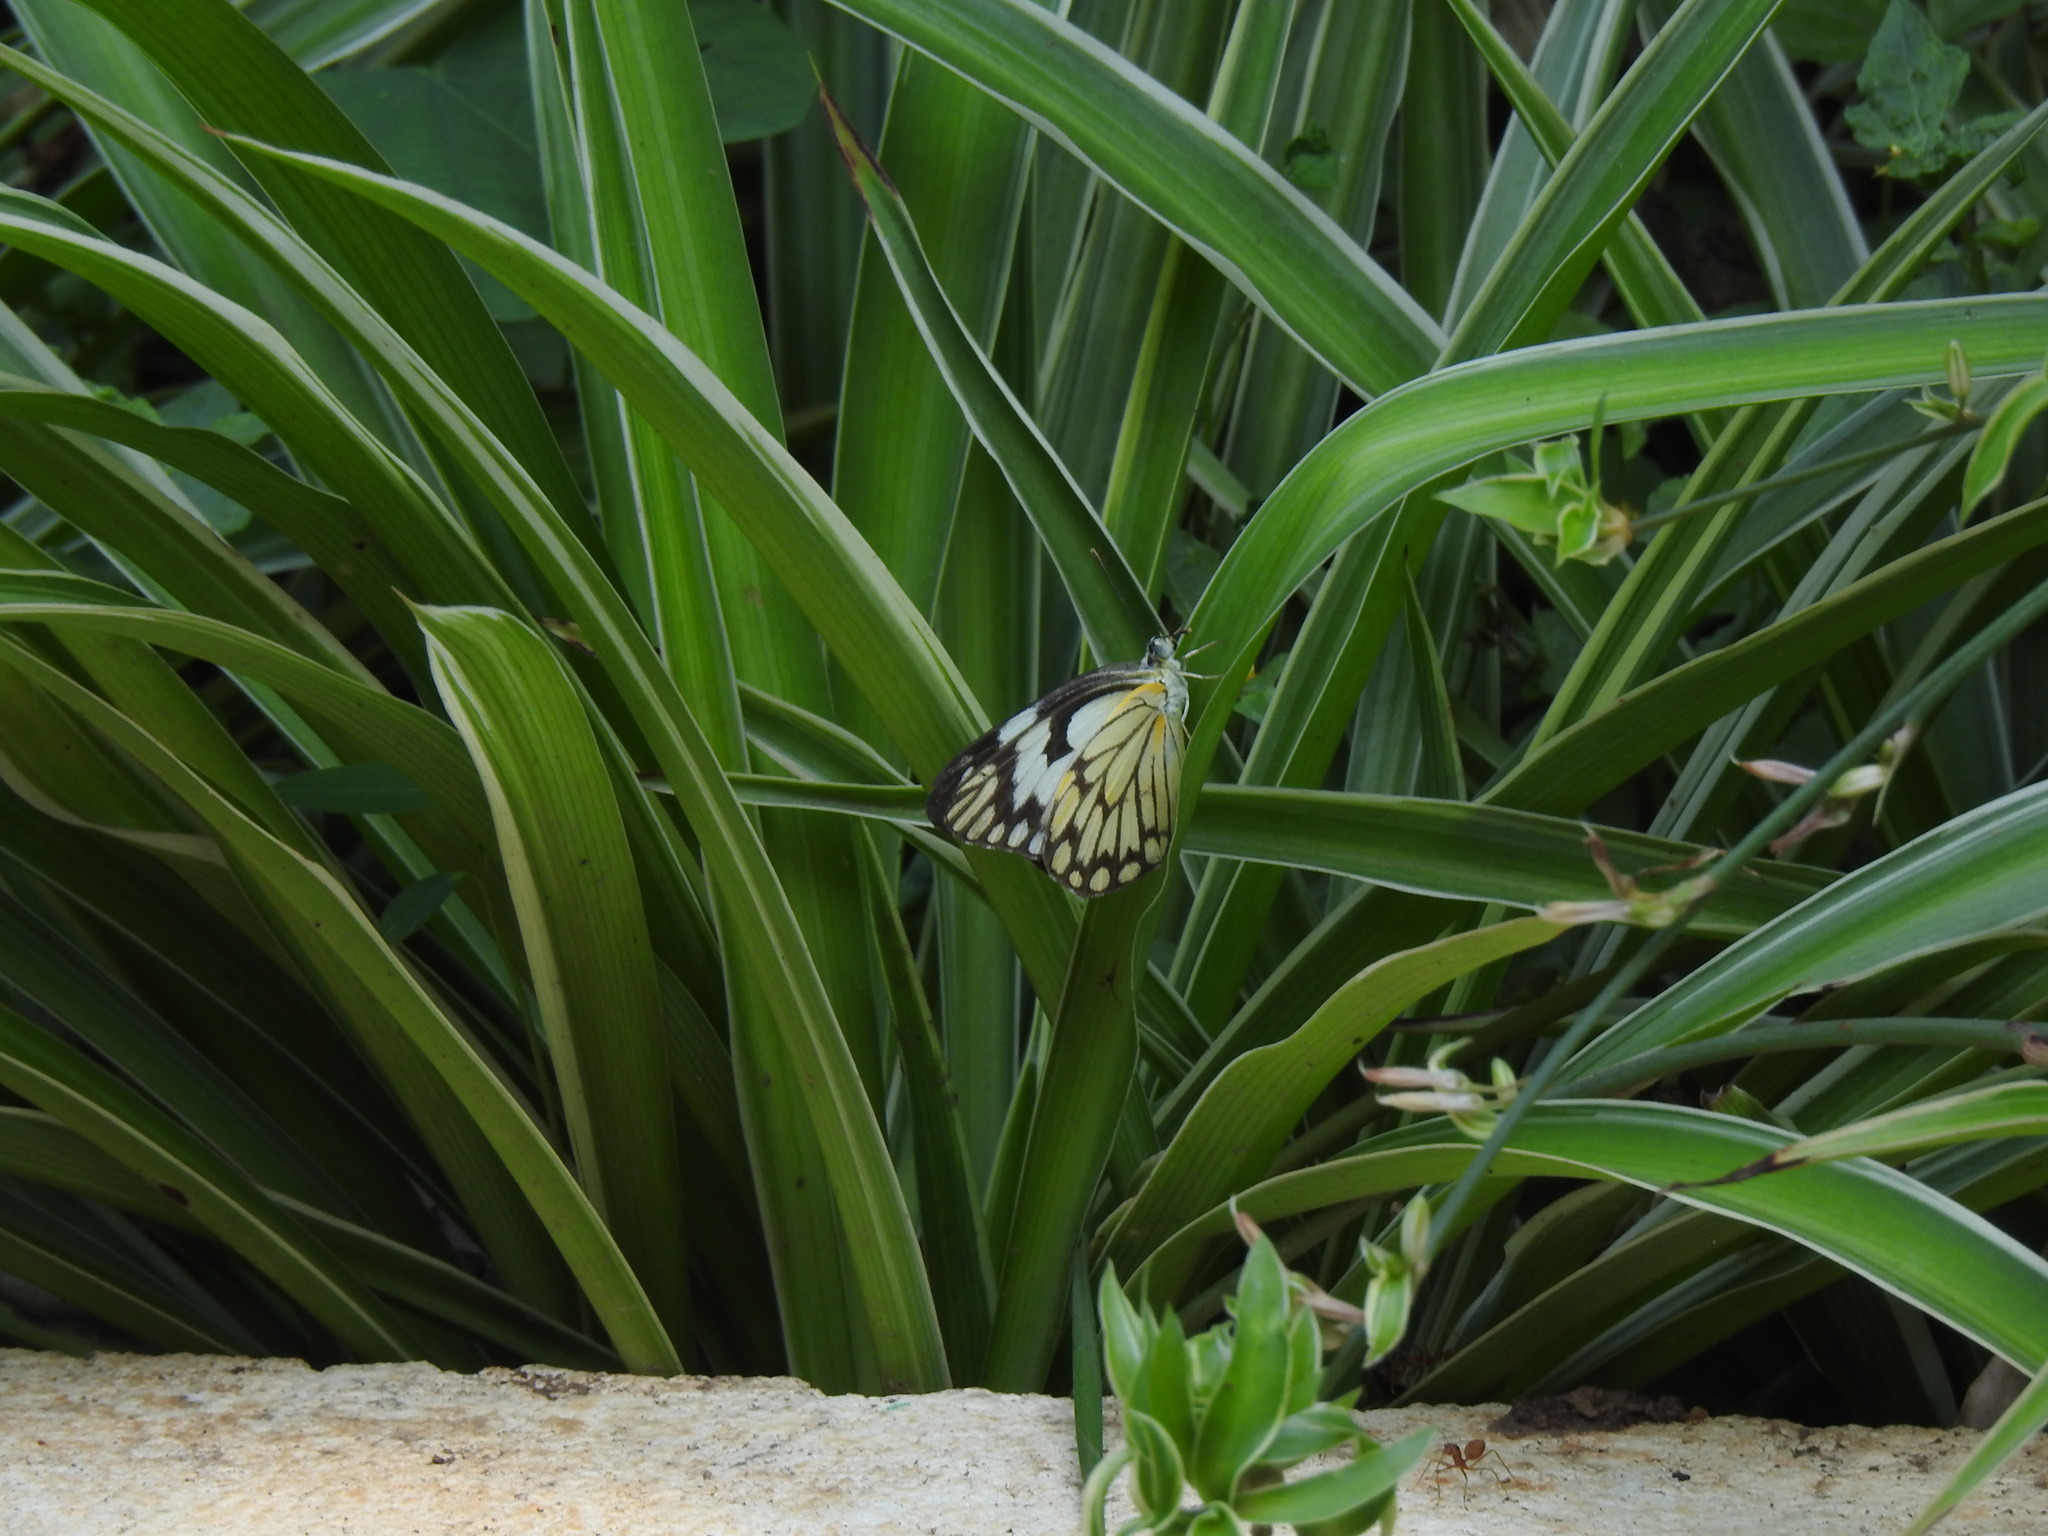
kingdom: Animalia
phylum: Arthropoda
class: Insecta
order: Lepidoptera
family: Pieridae
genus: Belenois
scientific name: Belenois aurota
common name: Brown-veined white
